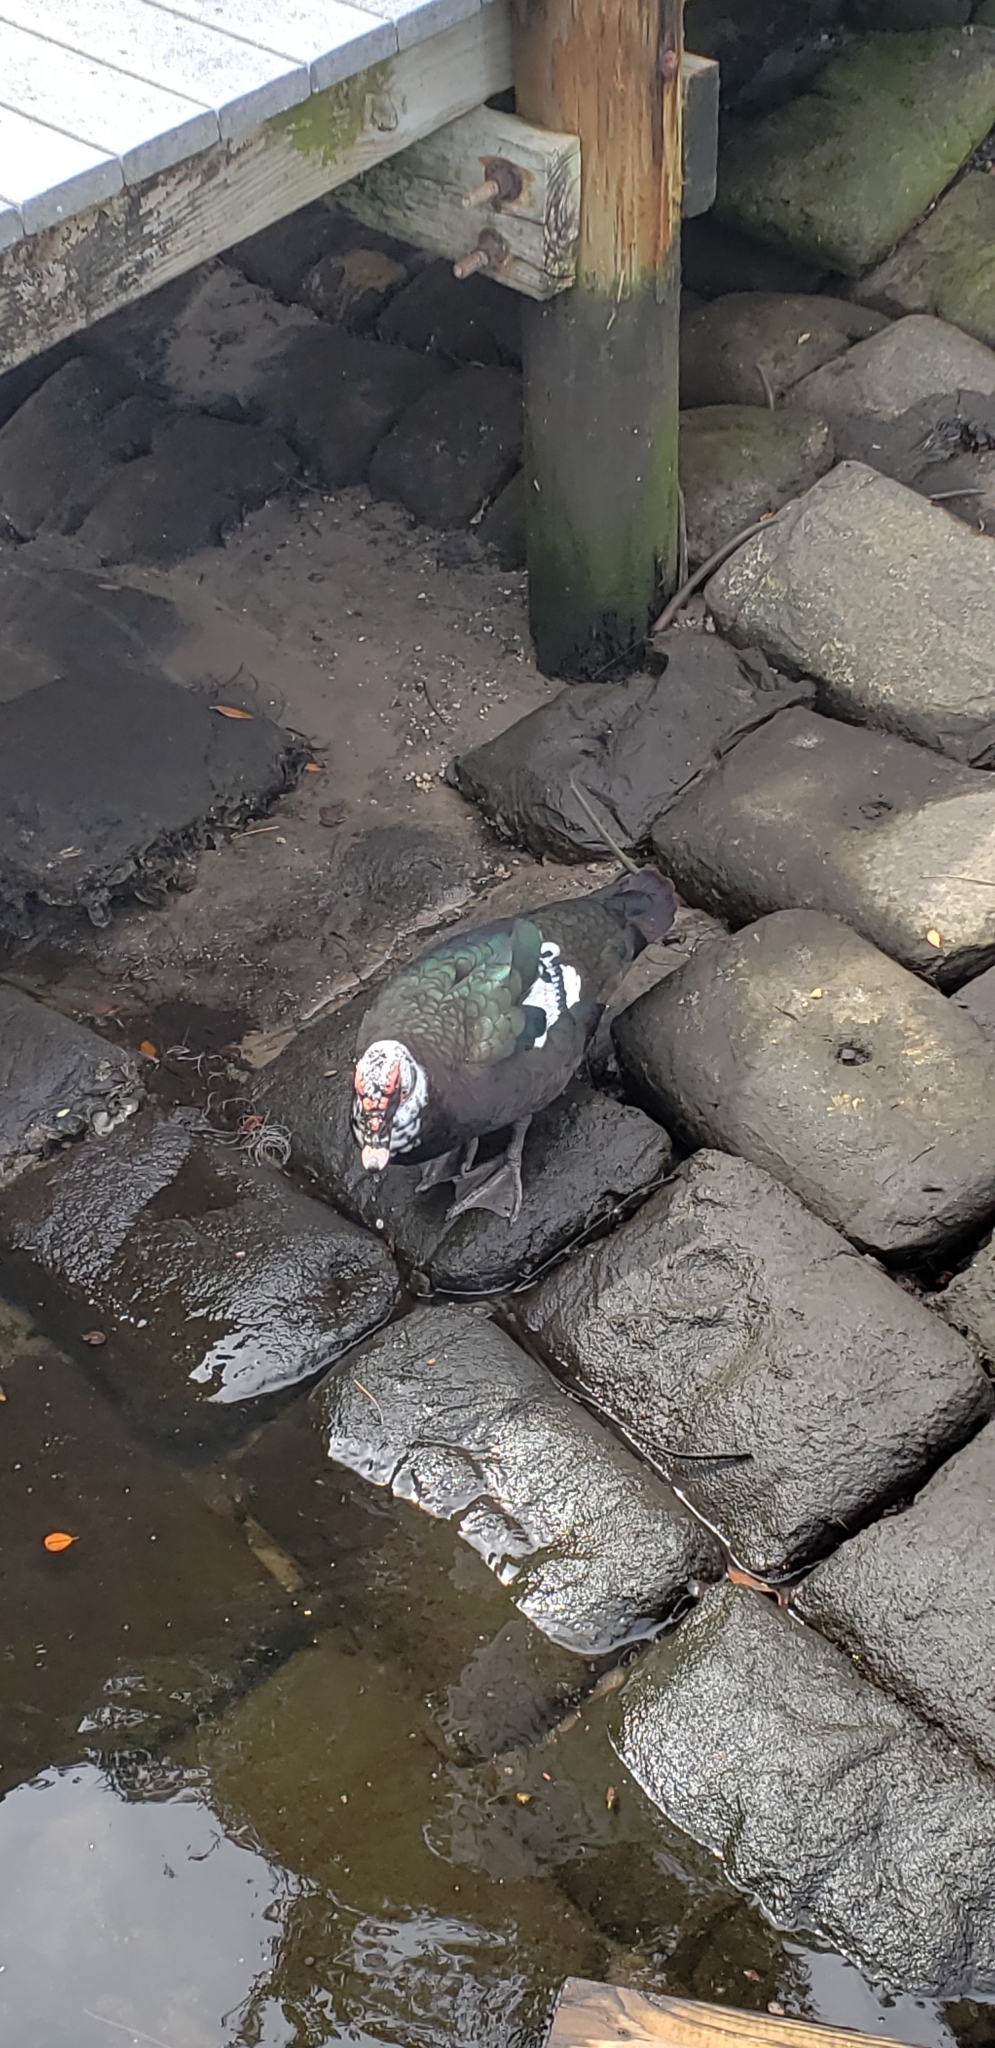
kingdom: Animalia
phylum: Chordata
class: Aves
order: Anseriformes
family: Anatidae
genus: Cairina
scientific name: Cairina moschata
